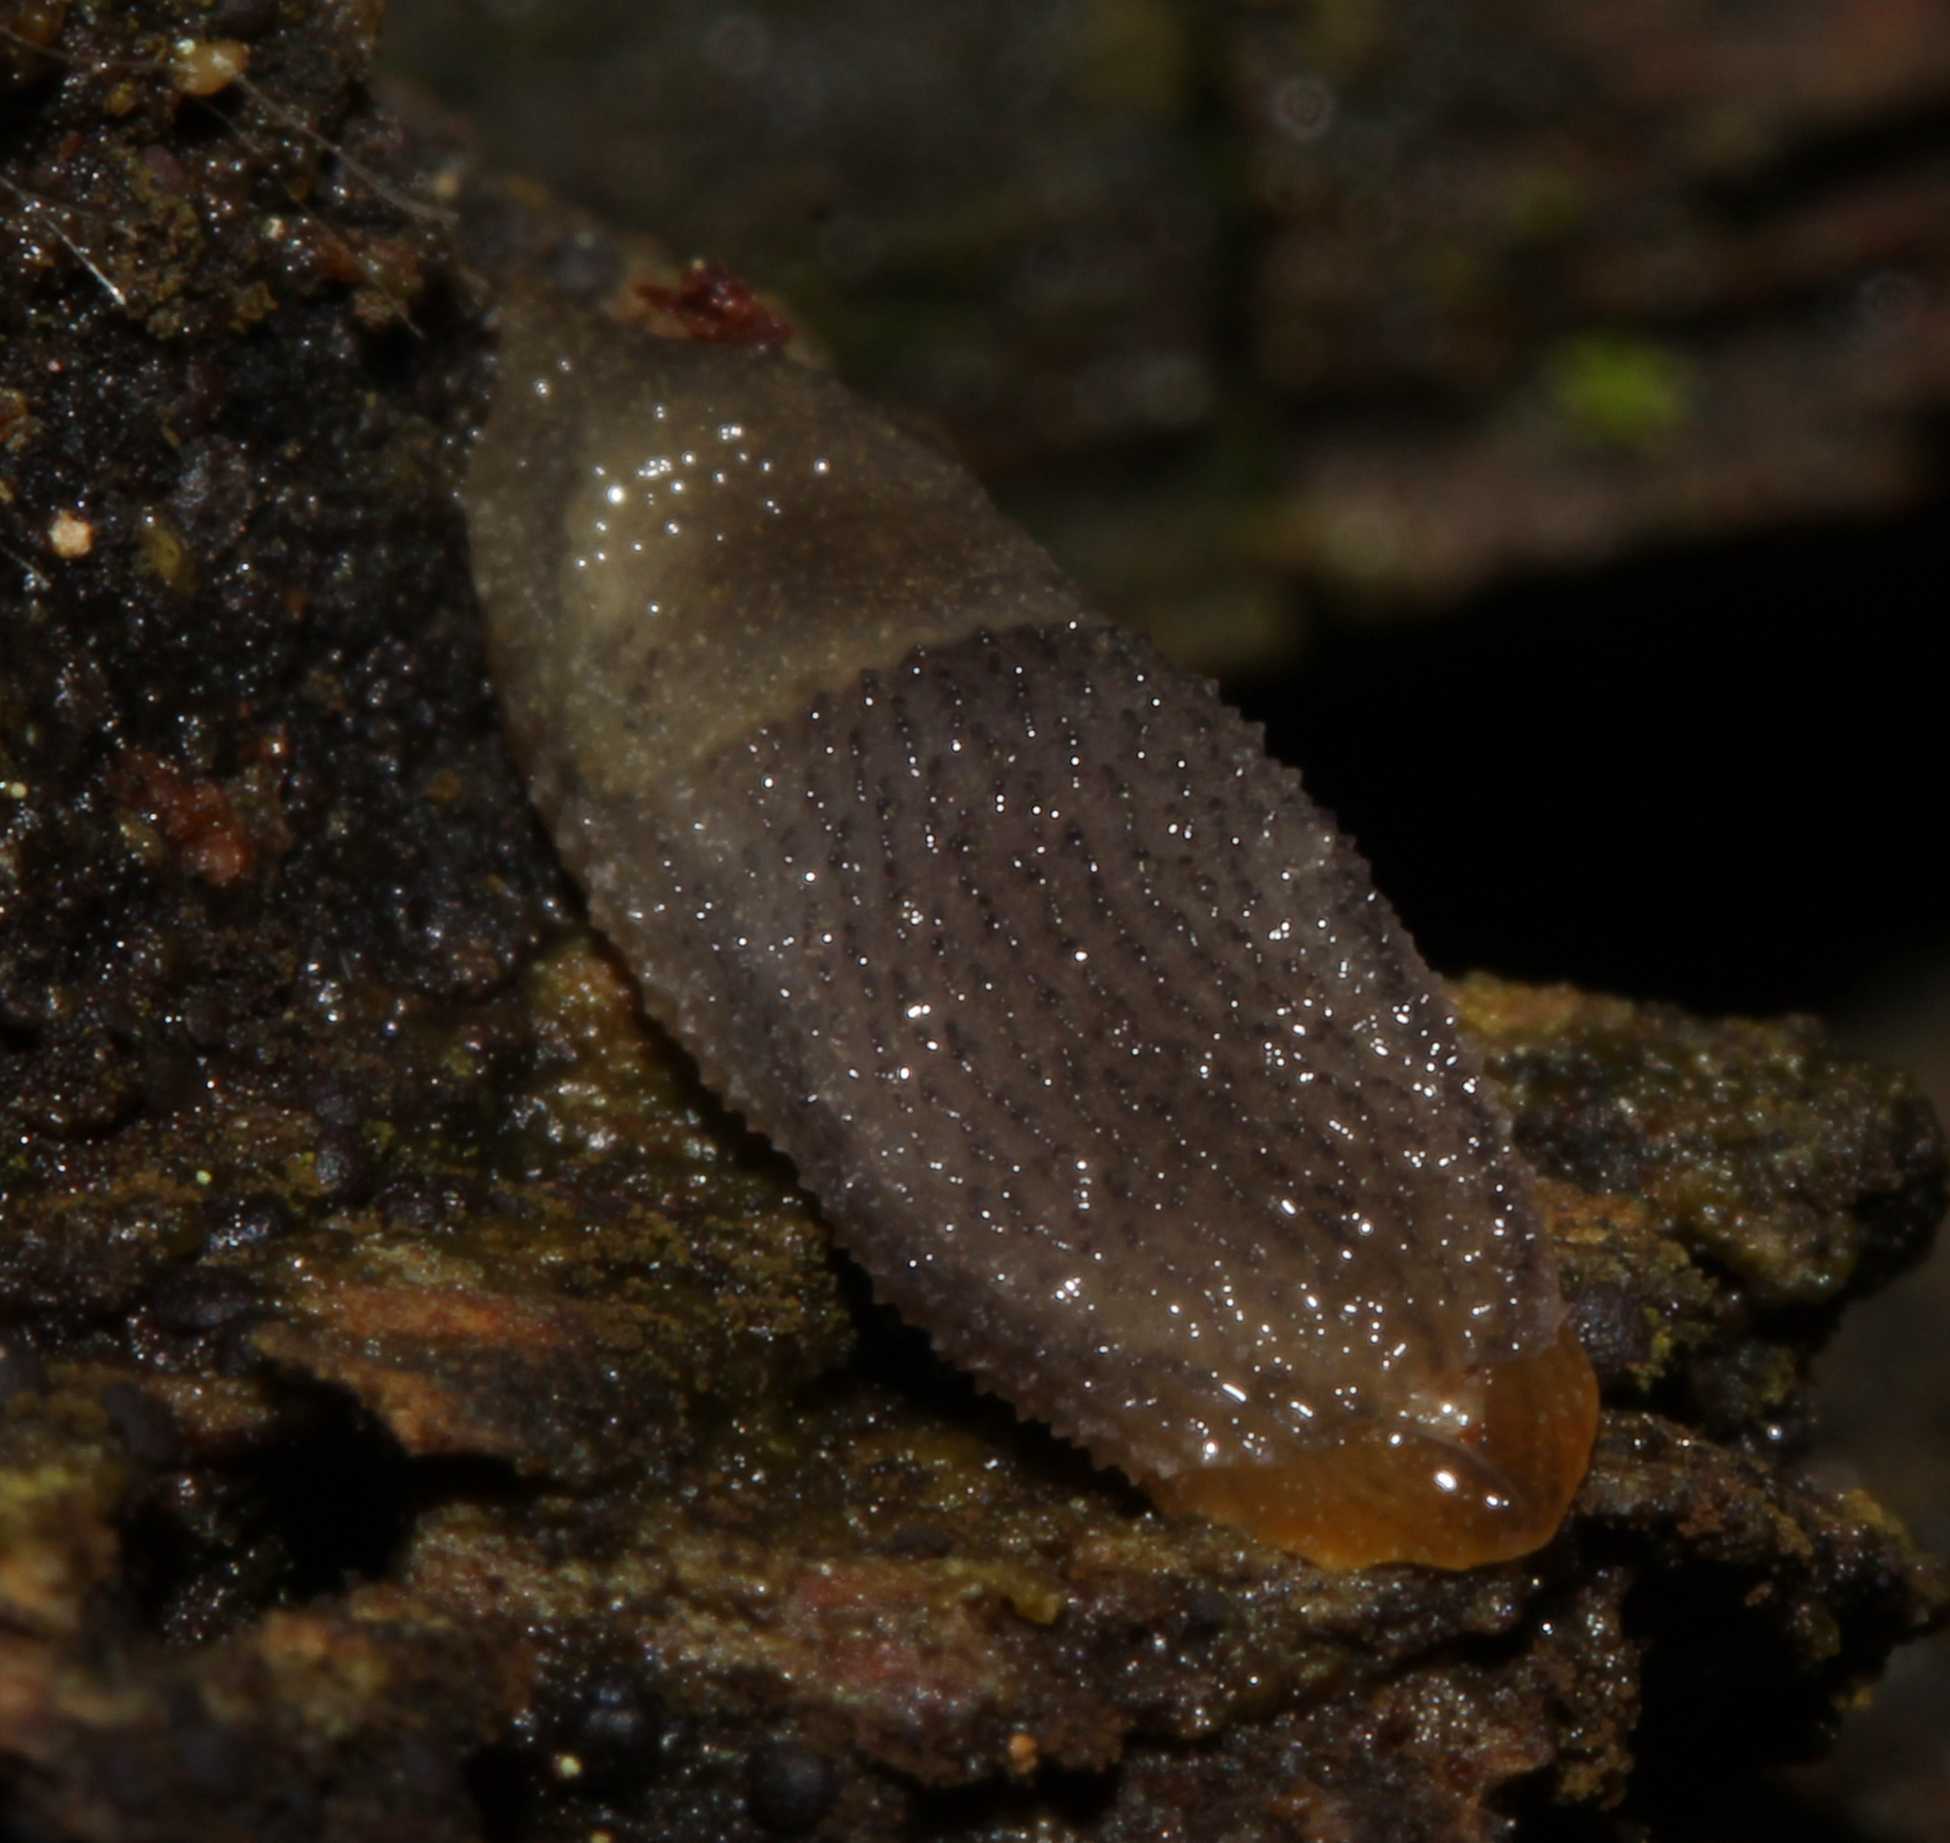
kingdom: Animalia
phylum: Mollusca
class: Gastropoda
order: Stylommatophora
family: Arionidae
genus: Arion
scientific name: Arion intermedius
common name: Hedgehog slug
